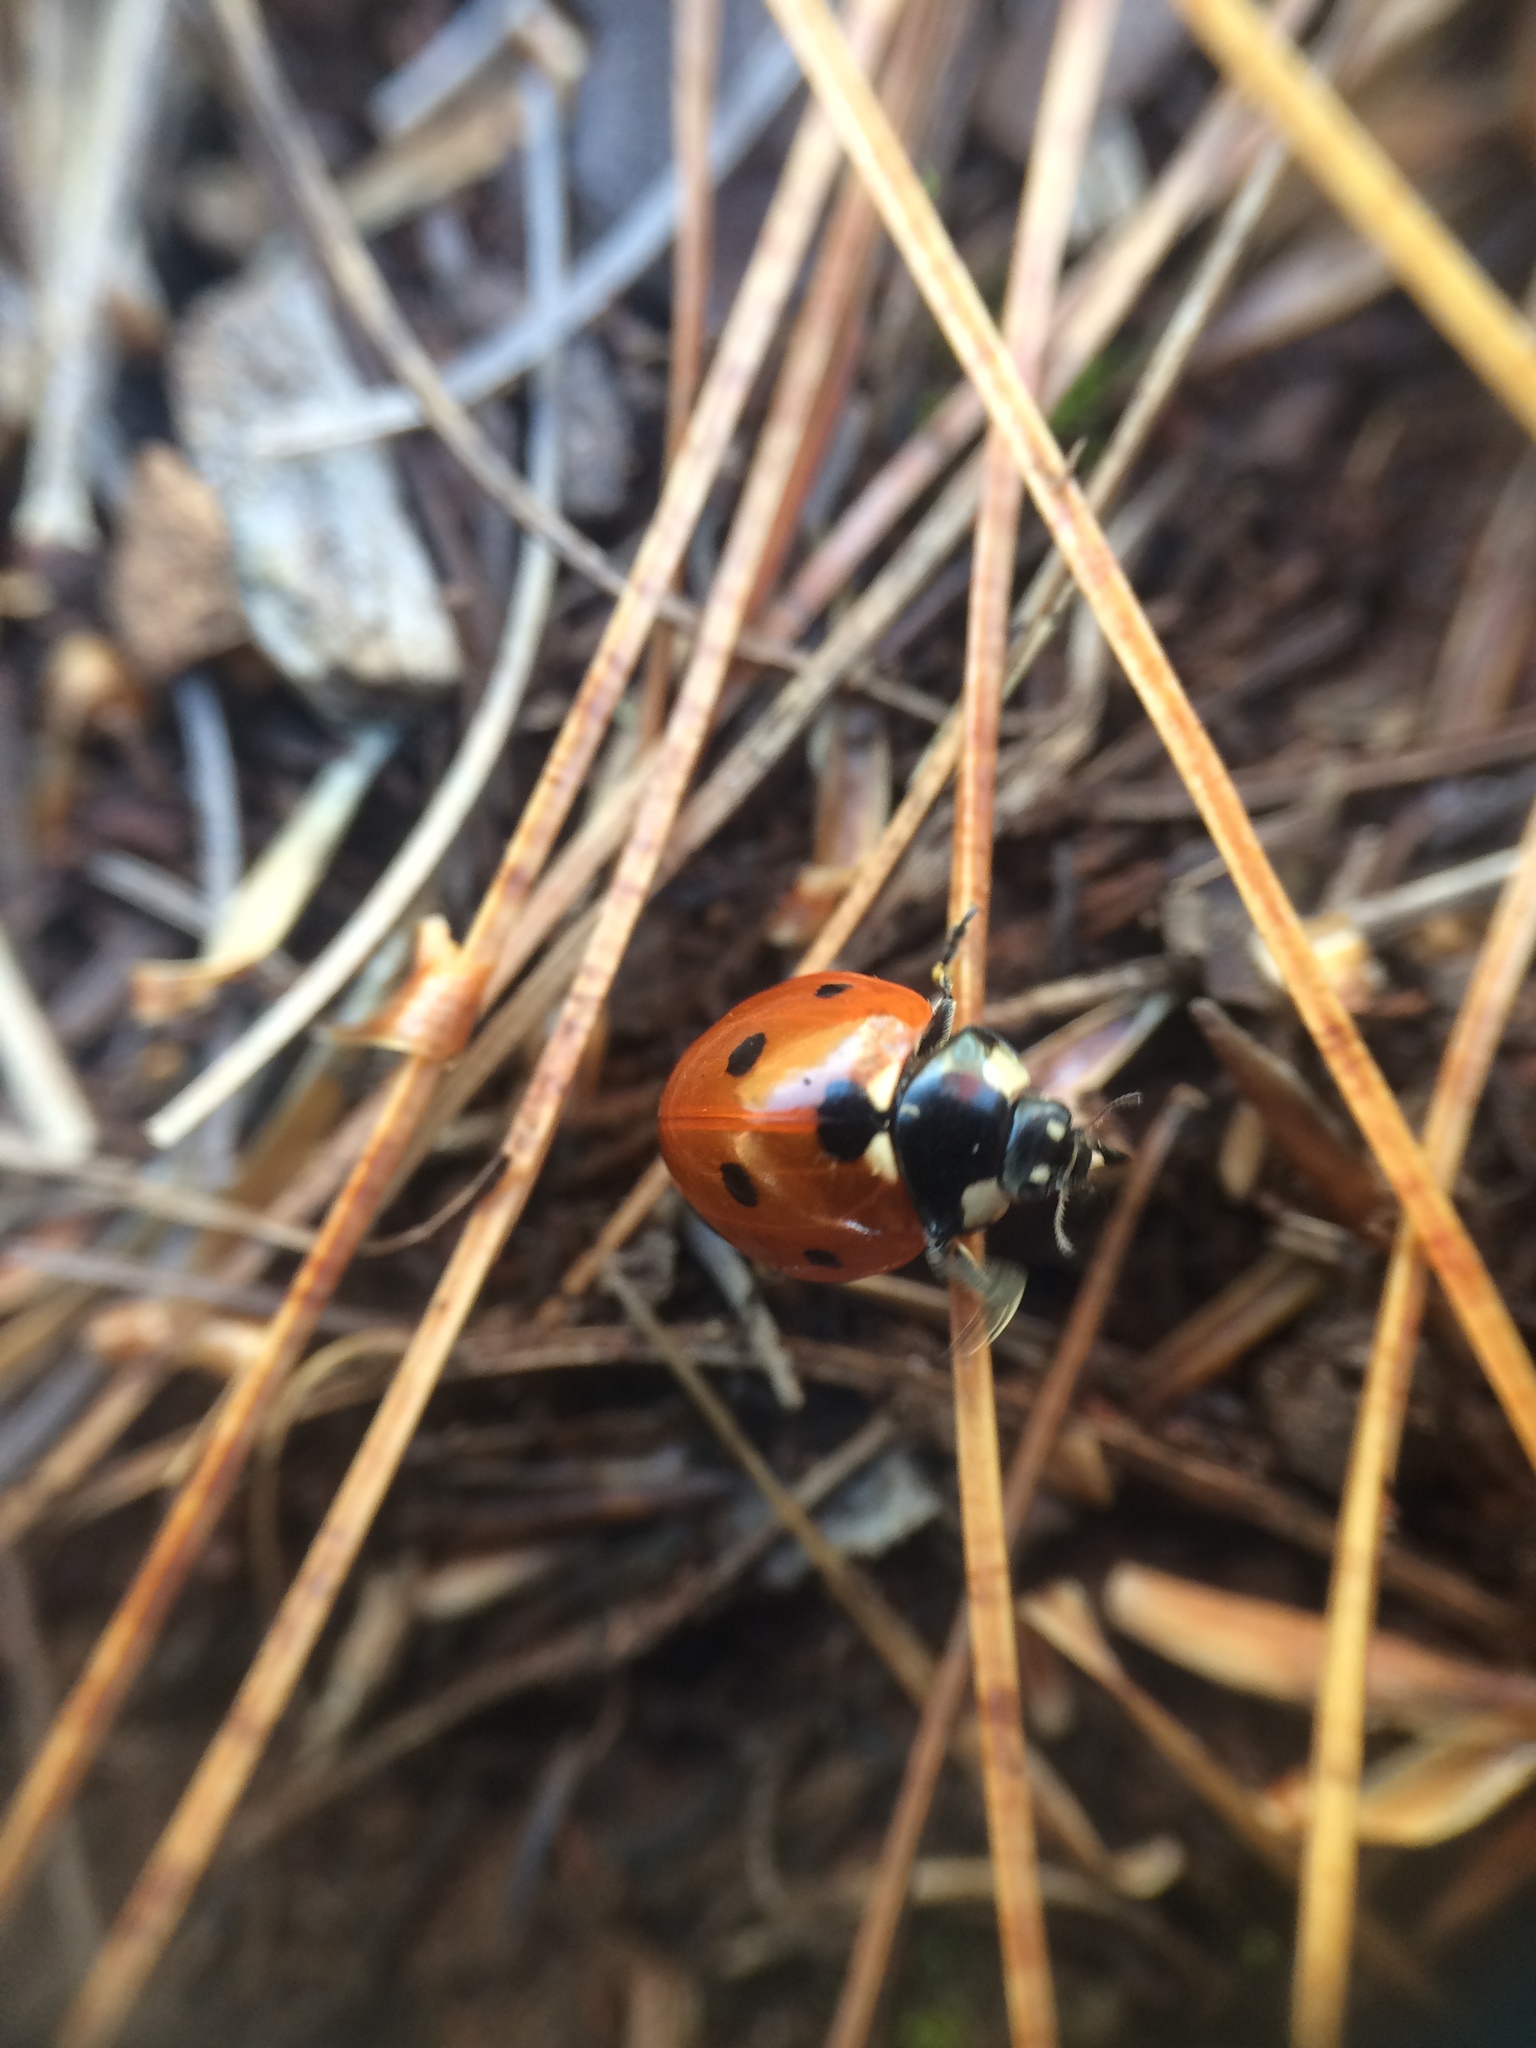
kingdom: Animalia
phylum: Arthropoda
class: Insecta
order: Coleoptera
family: Coccinellidae
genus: Coccinella
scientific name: Coccinella septempunctata
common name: Sevenspotted lady beetle
